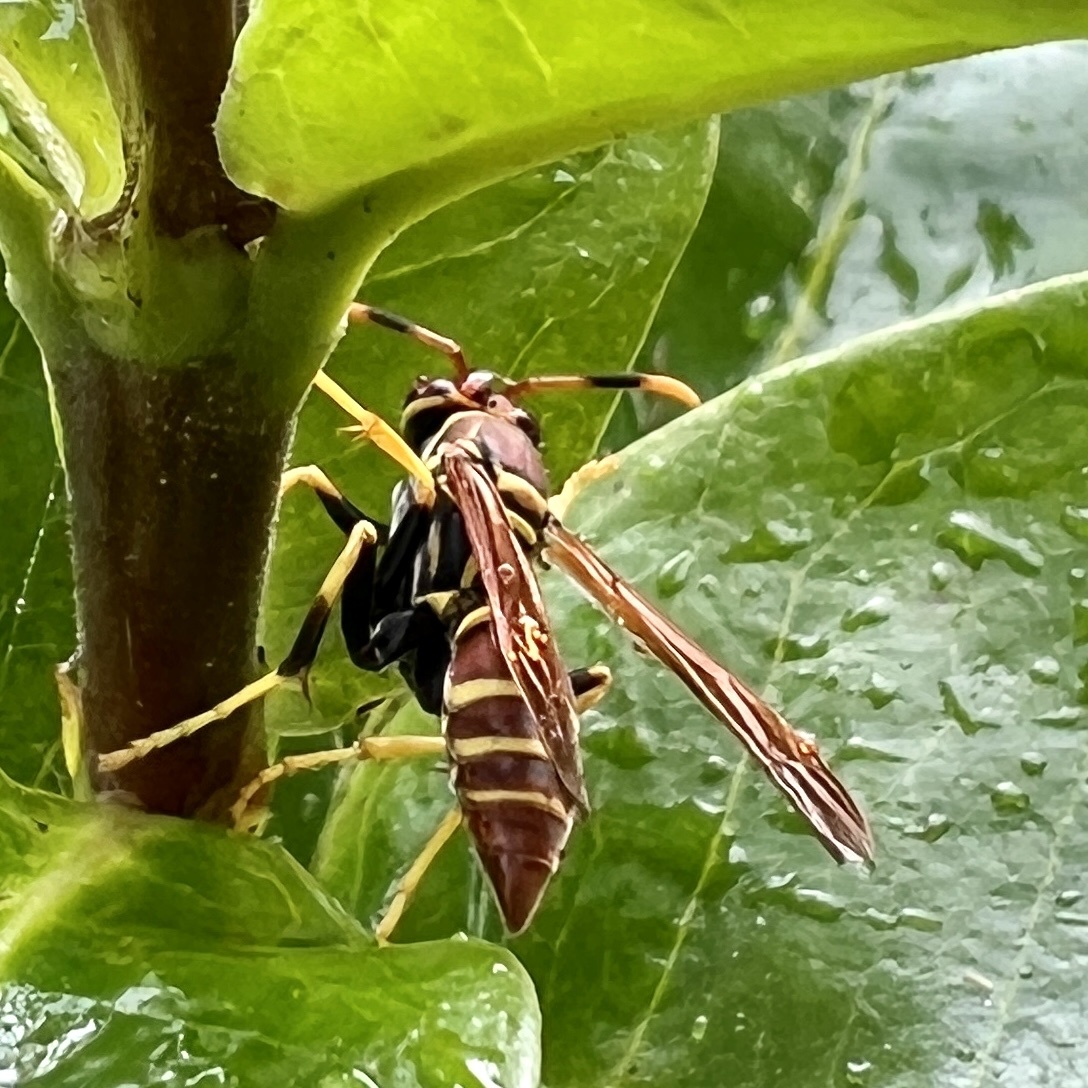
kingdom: Animalia
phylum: Arthropoda
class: Insecta
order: Hymenoptera
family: Eumenidae
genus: Polistes
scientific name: Polistes crinitus
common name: Jack spaniard
